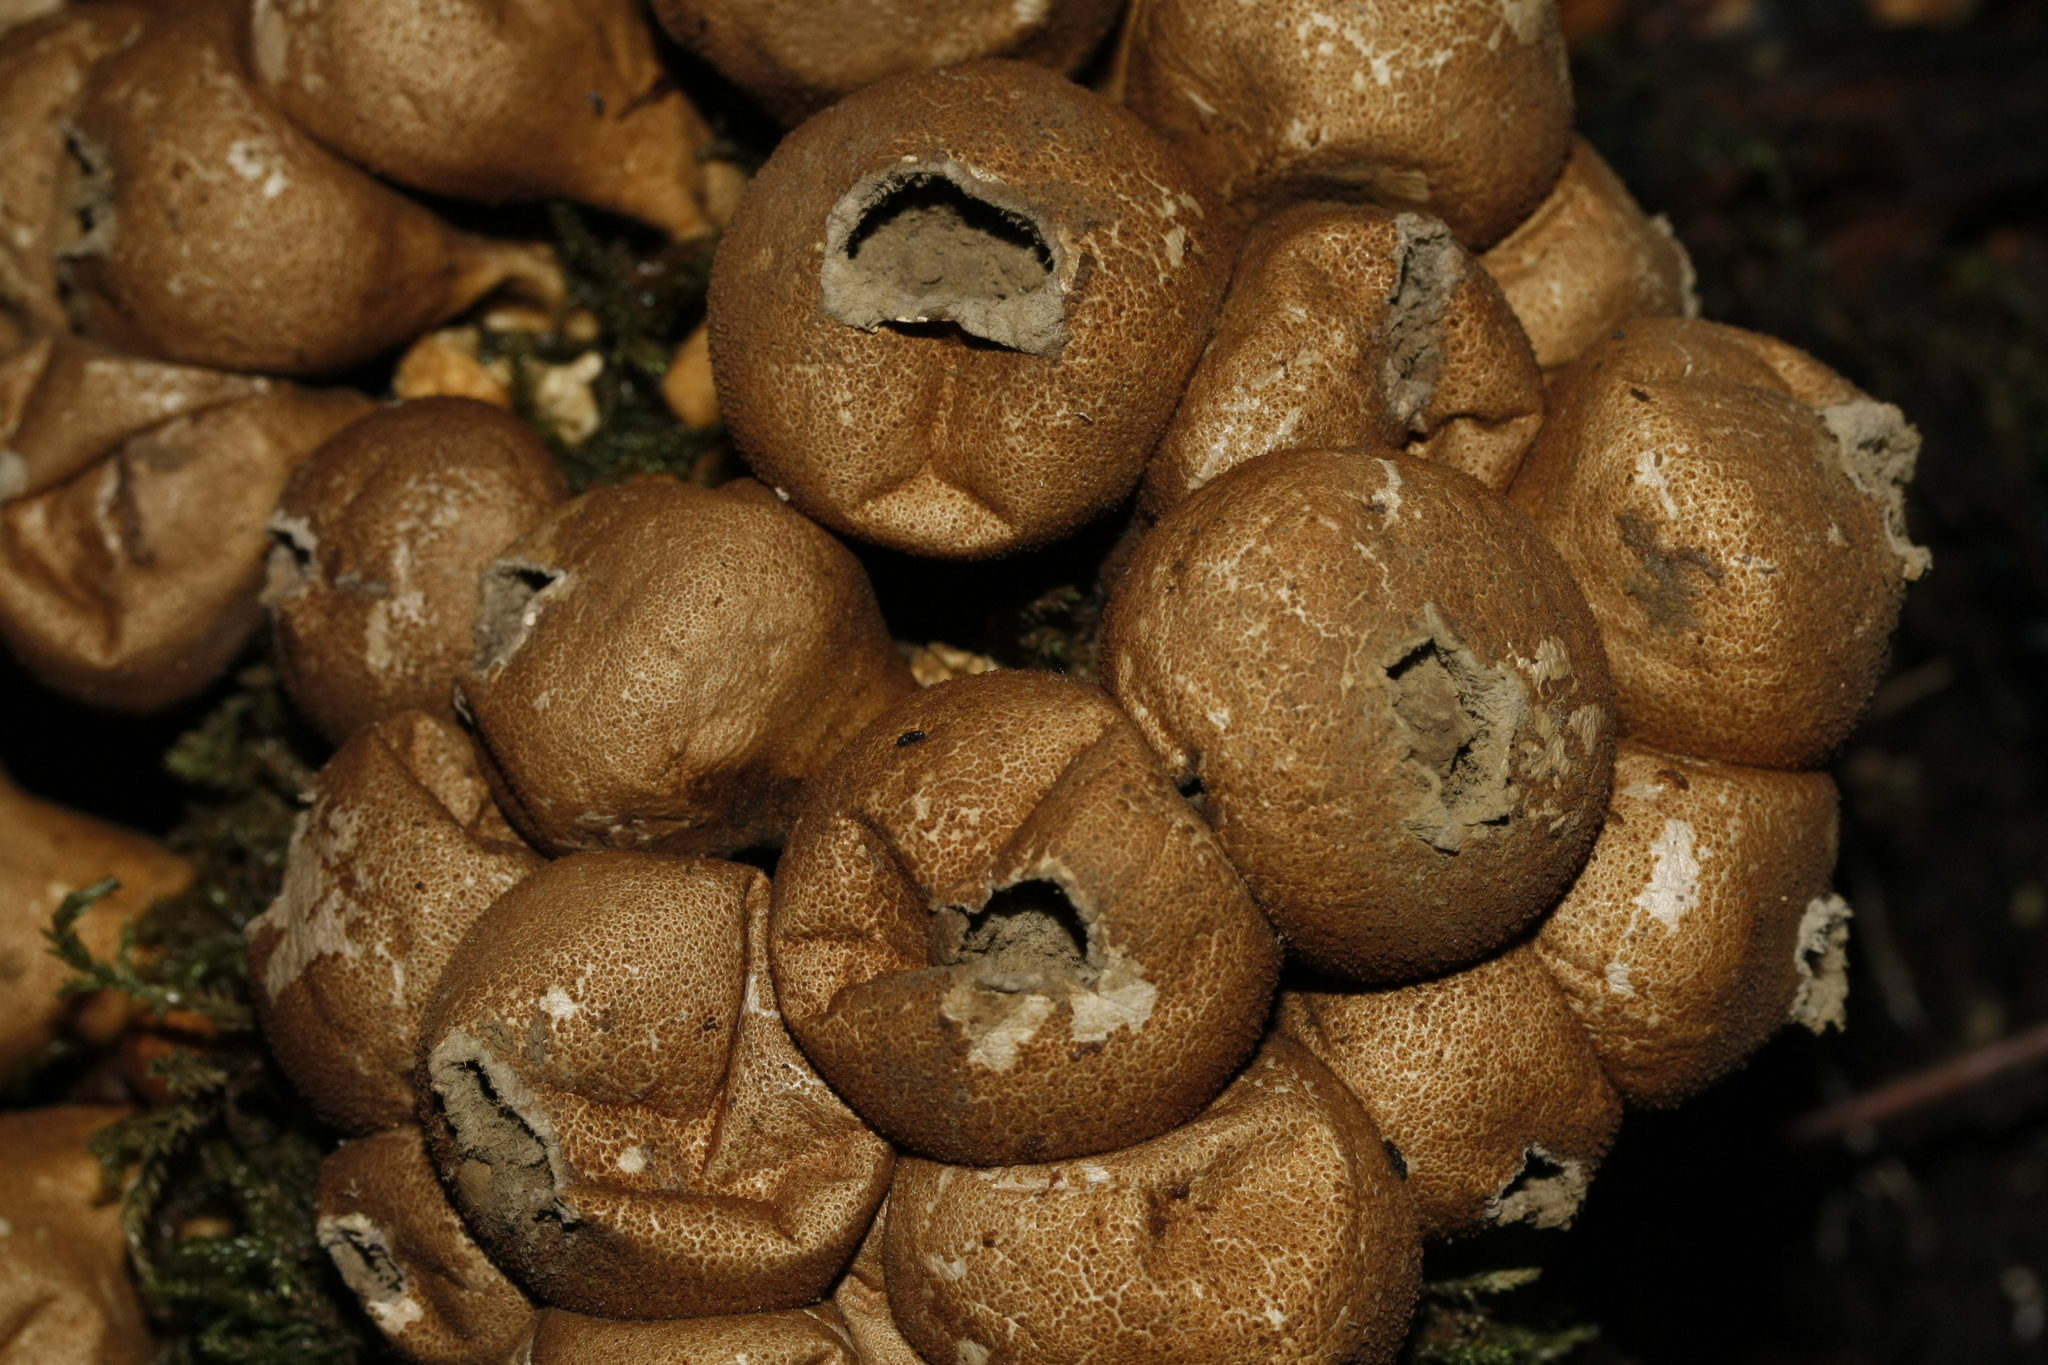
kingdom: Fungi
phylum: Basidiomycota
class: Agaricomycetes
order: Agaricales
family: Lycoperdaceae
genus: Apioperdon
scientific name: Apioperdon pyriforme
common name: Pear-shaped puffball
